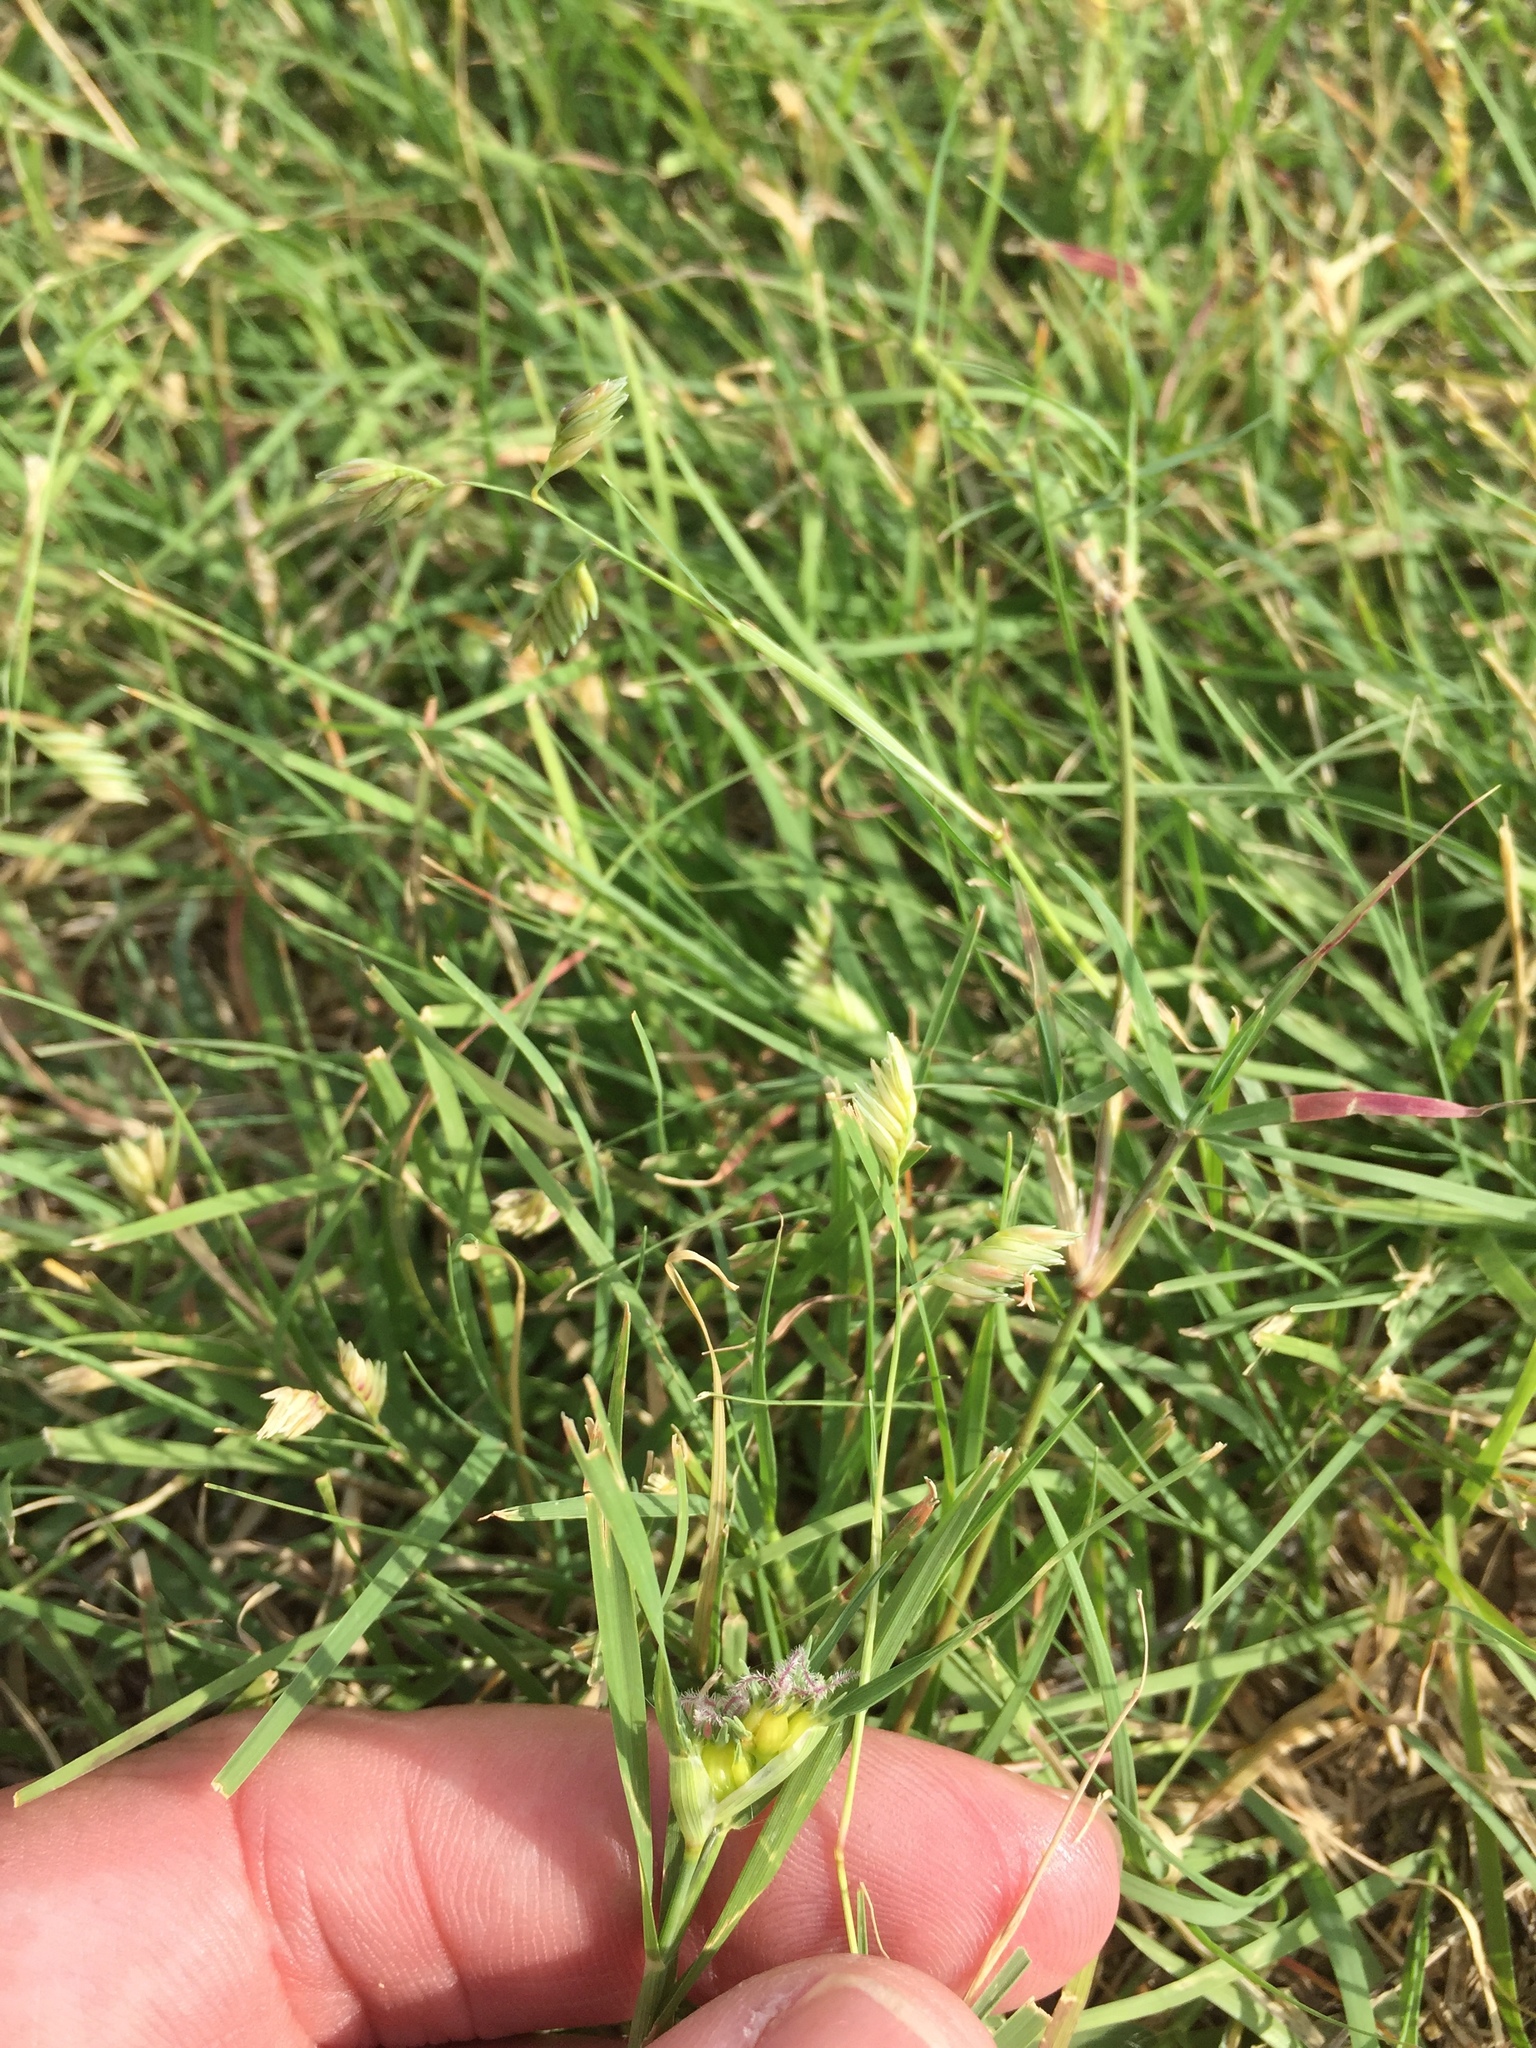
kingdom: Plantae
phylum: Tracheophyta
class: Liliopsida
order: Poales
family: Poaceae
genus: Bouteloua
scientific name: Bouteloua dactyloides
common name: Buffalo grass
